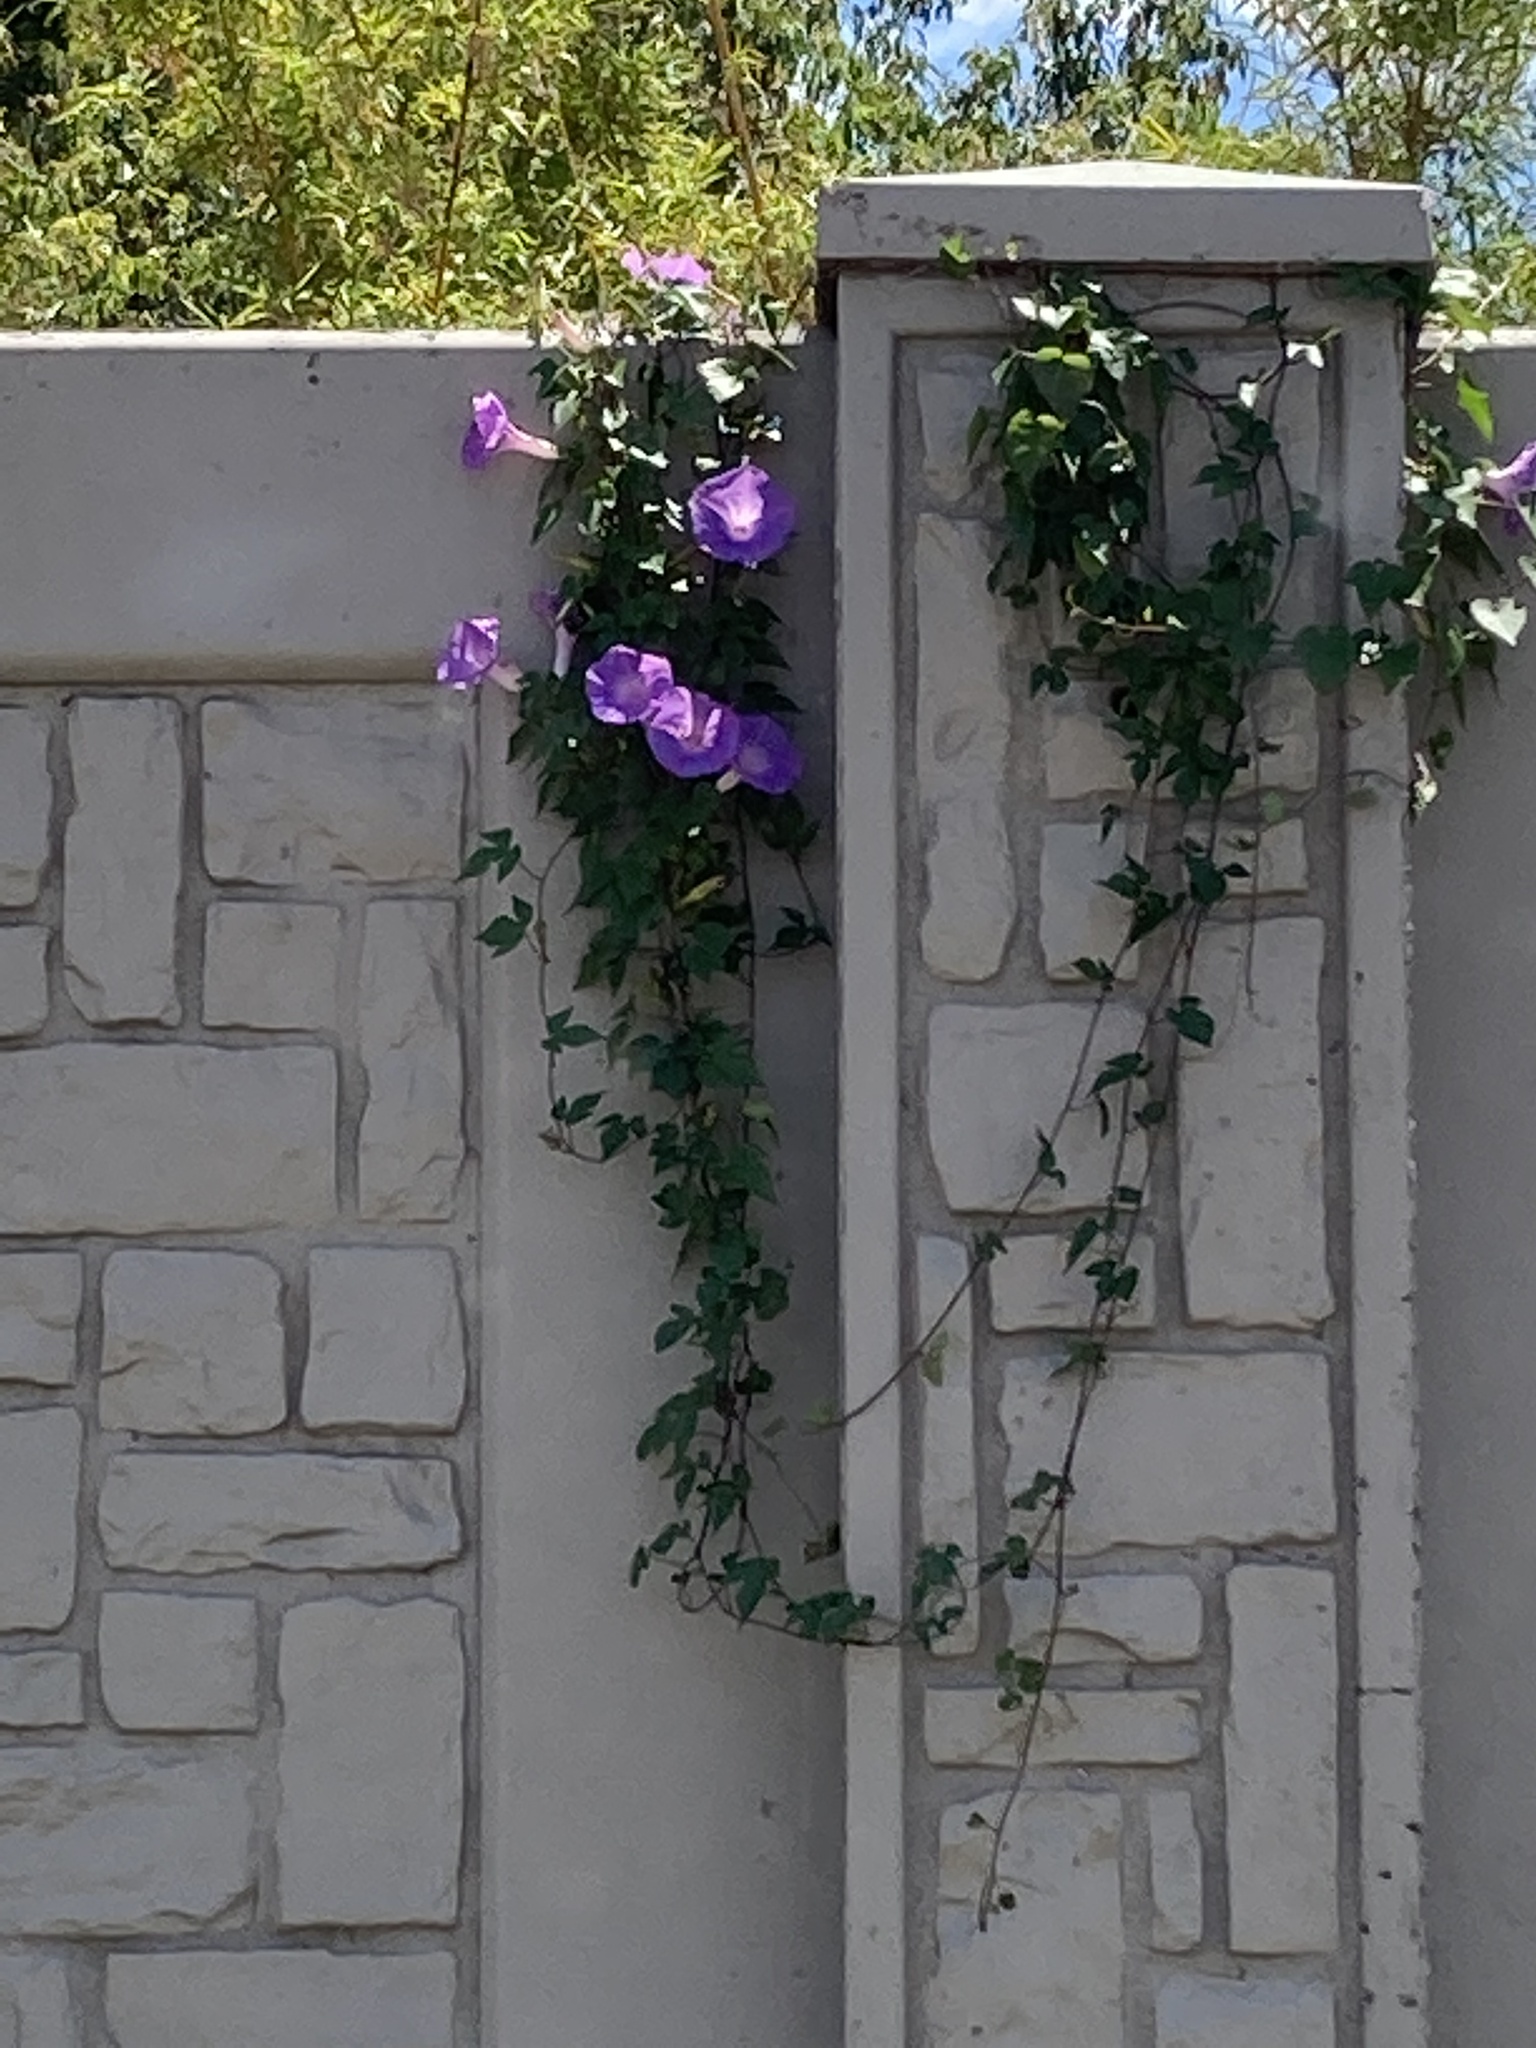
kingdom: Plantae
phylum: Tracheophyta
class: Magnoliopsida
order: Solanales
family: Convolvulaceae
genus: Ipomoea
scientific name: Ipomoea indica
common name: Blue dawnflower
